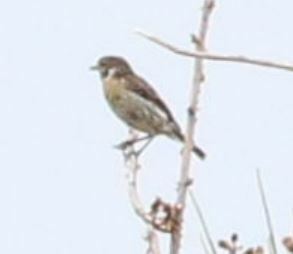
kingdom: Animalia
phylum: Chordata
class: Aves
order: Passeriformes
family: Muscicapidae
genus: Saxicola
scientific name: Saxicola rubicola
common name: European stonechat
